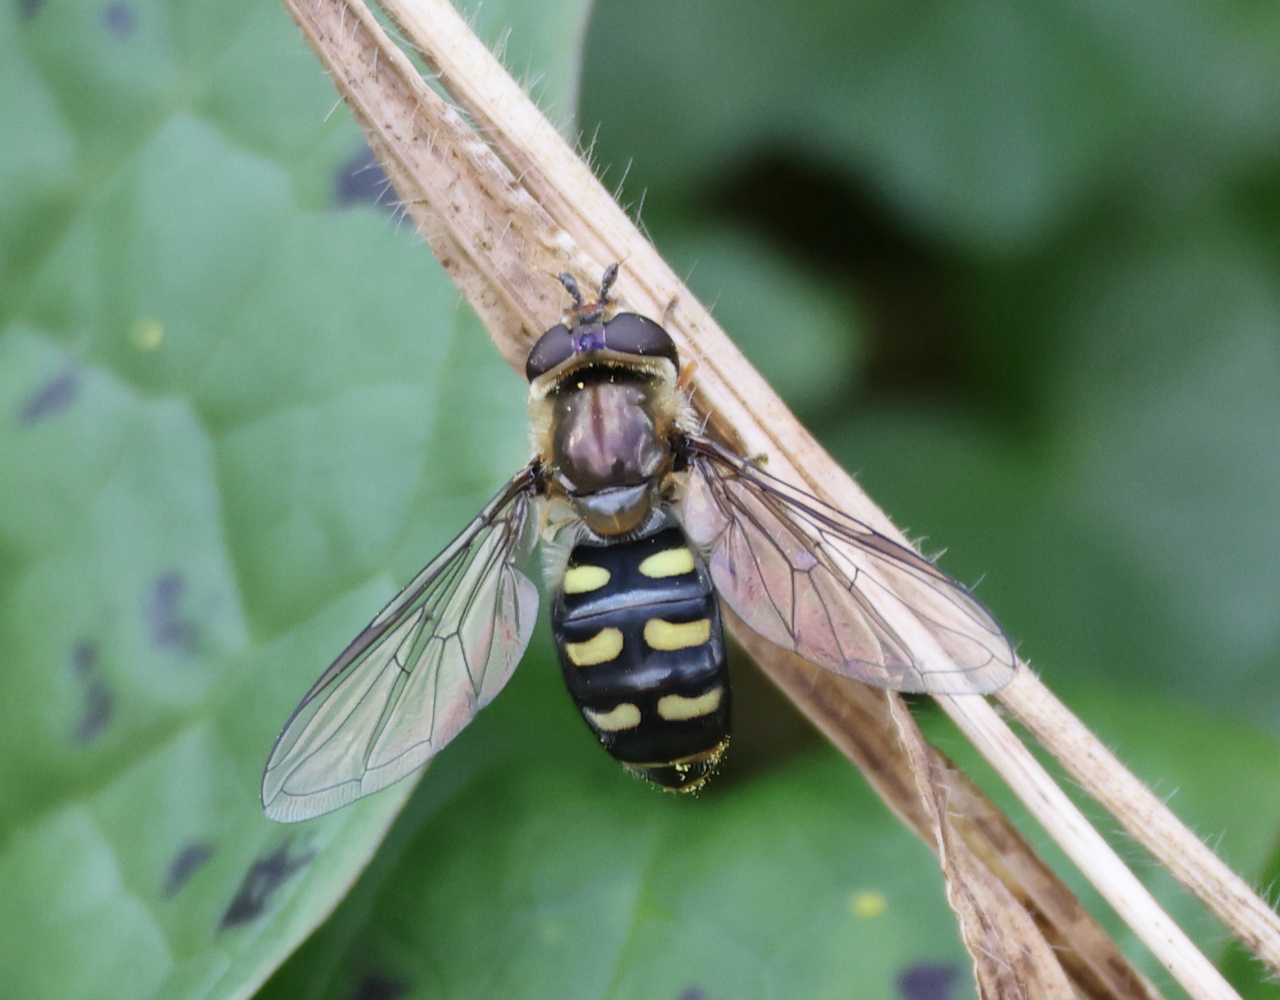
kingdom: Animalia
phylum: Arthropoda
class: Insecta
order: Diptera
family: Syrphidae
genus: Eupeodes
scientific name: Eupeodes luniger
